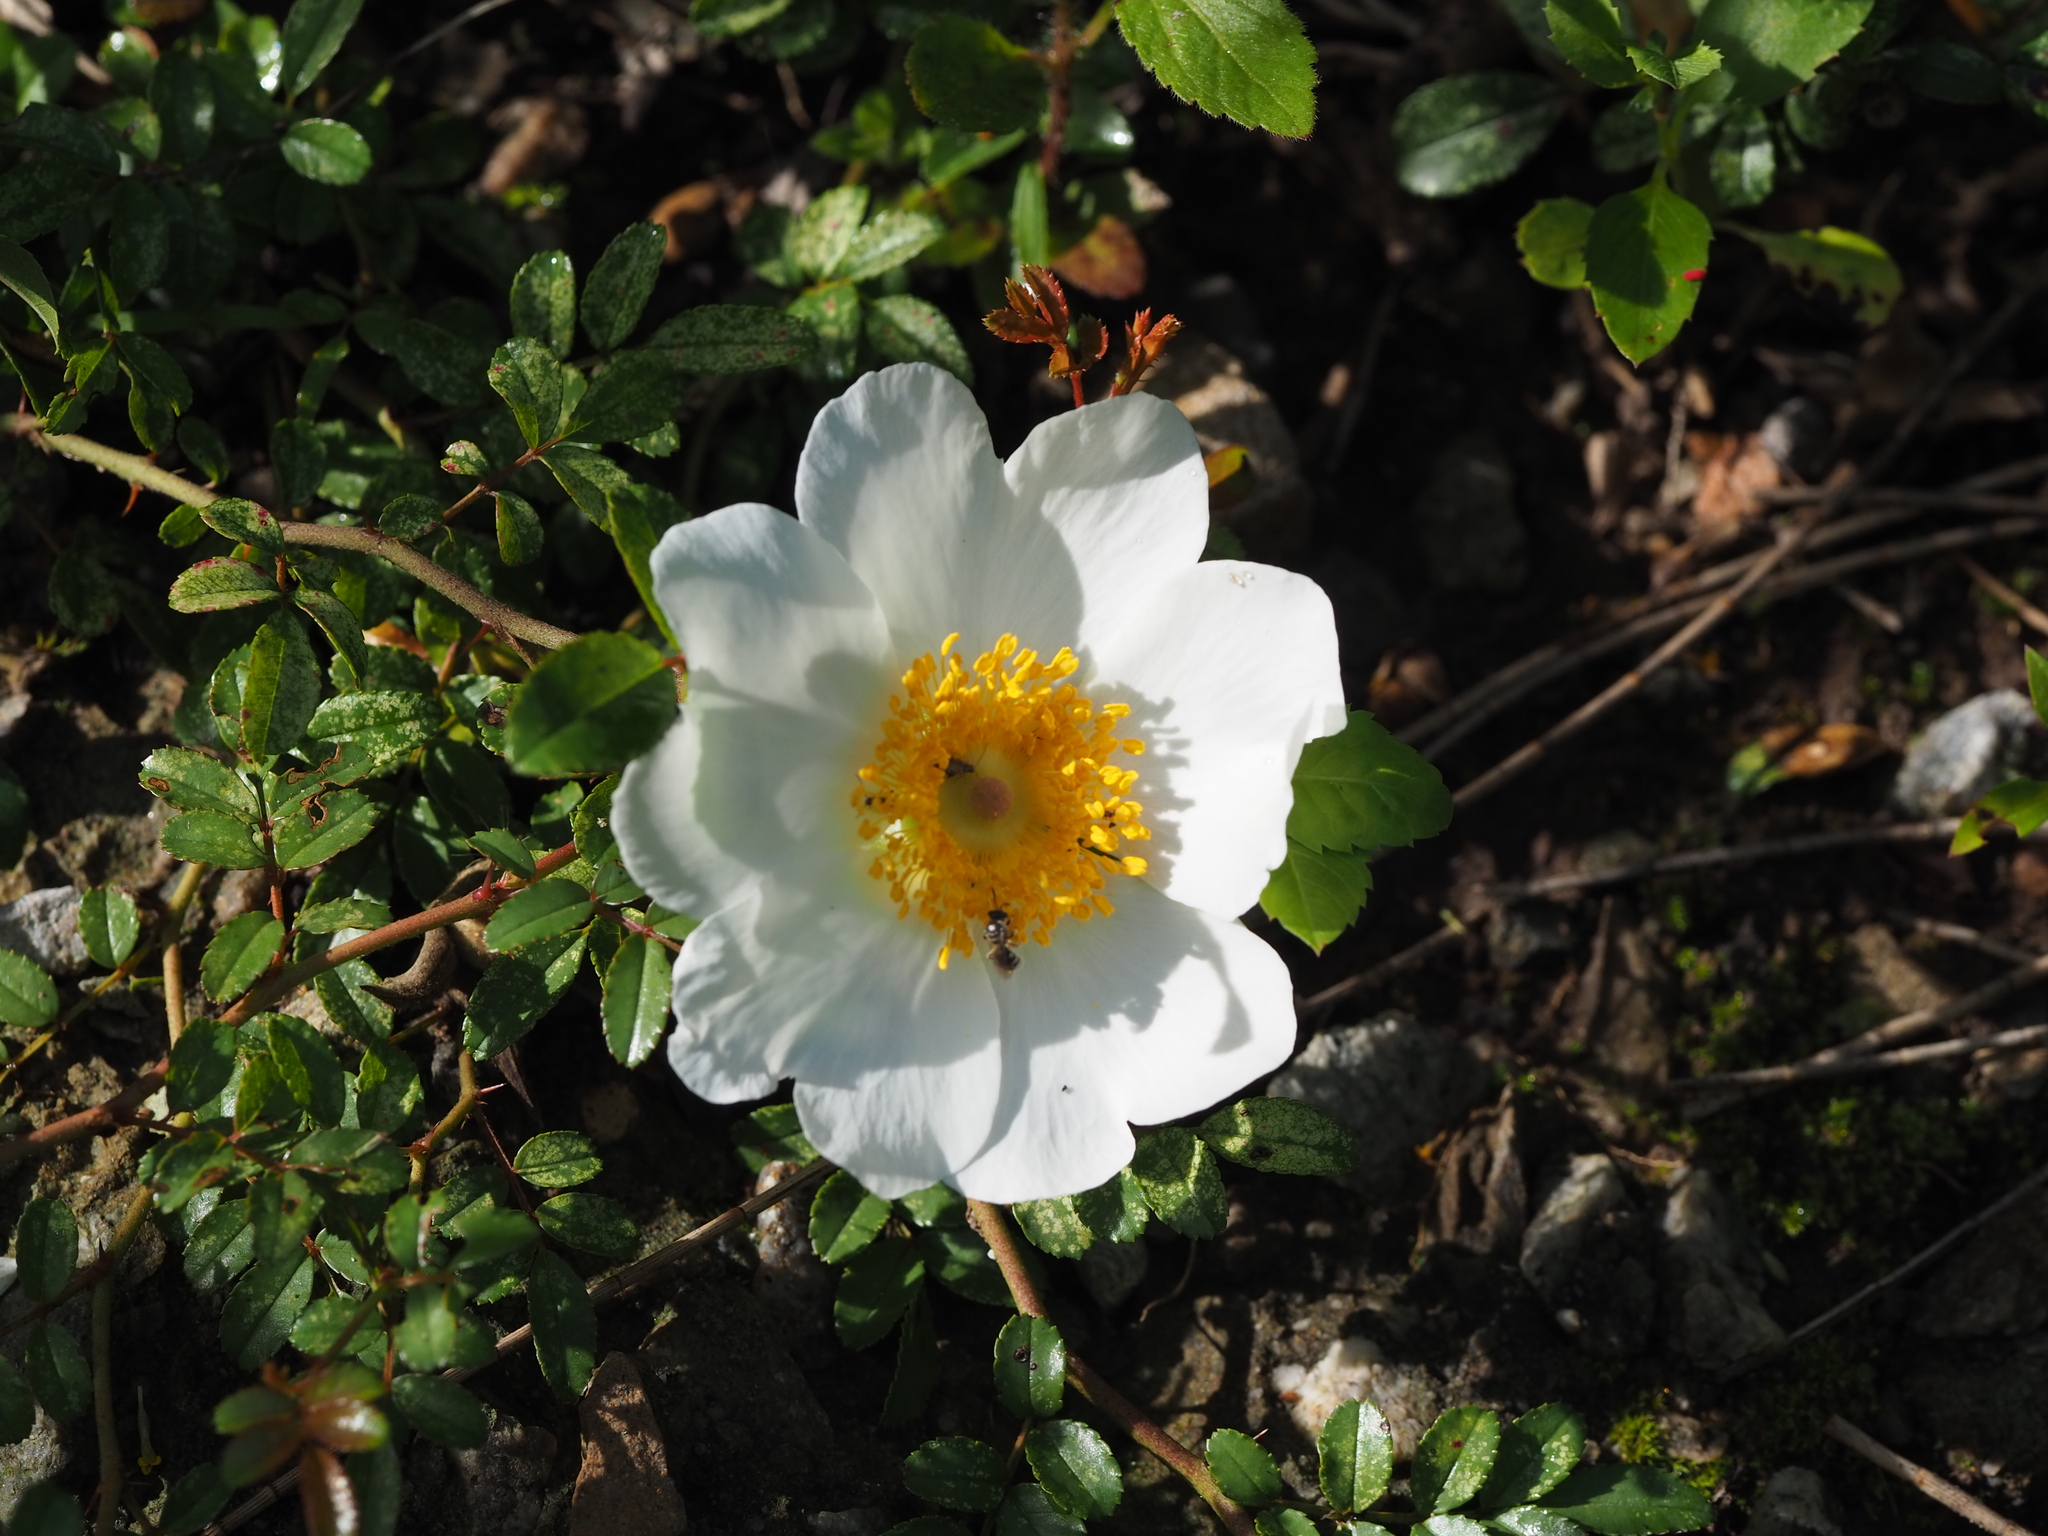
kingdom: Plantae
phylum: Tracheophyta
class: Magnoliopsida
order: Rosales
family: Rosaceae
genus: Rosa
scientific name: Rosa bracteata
